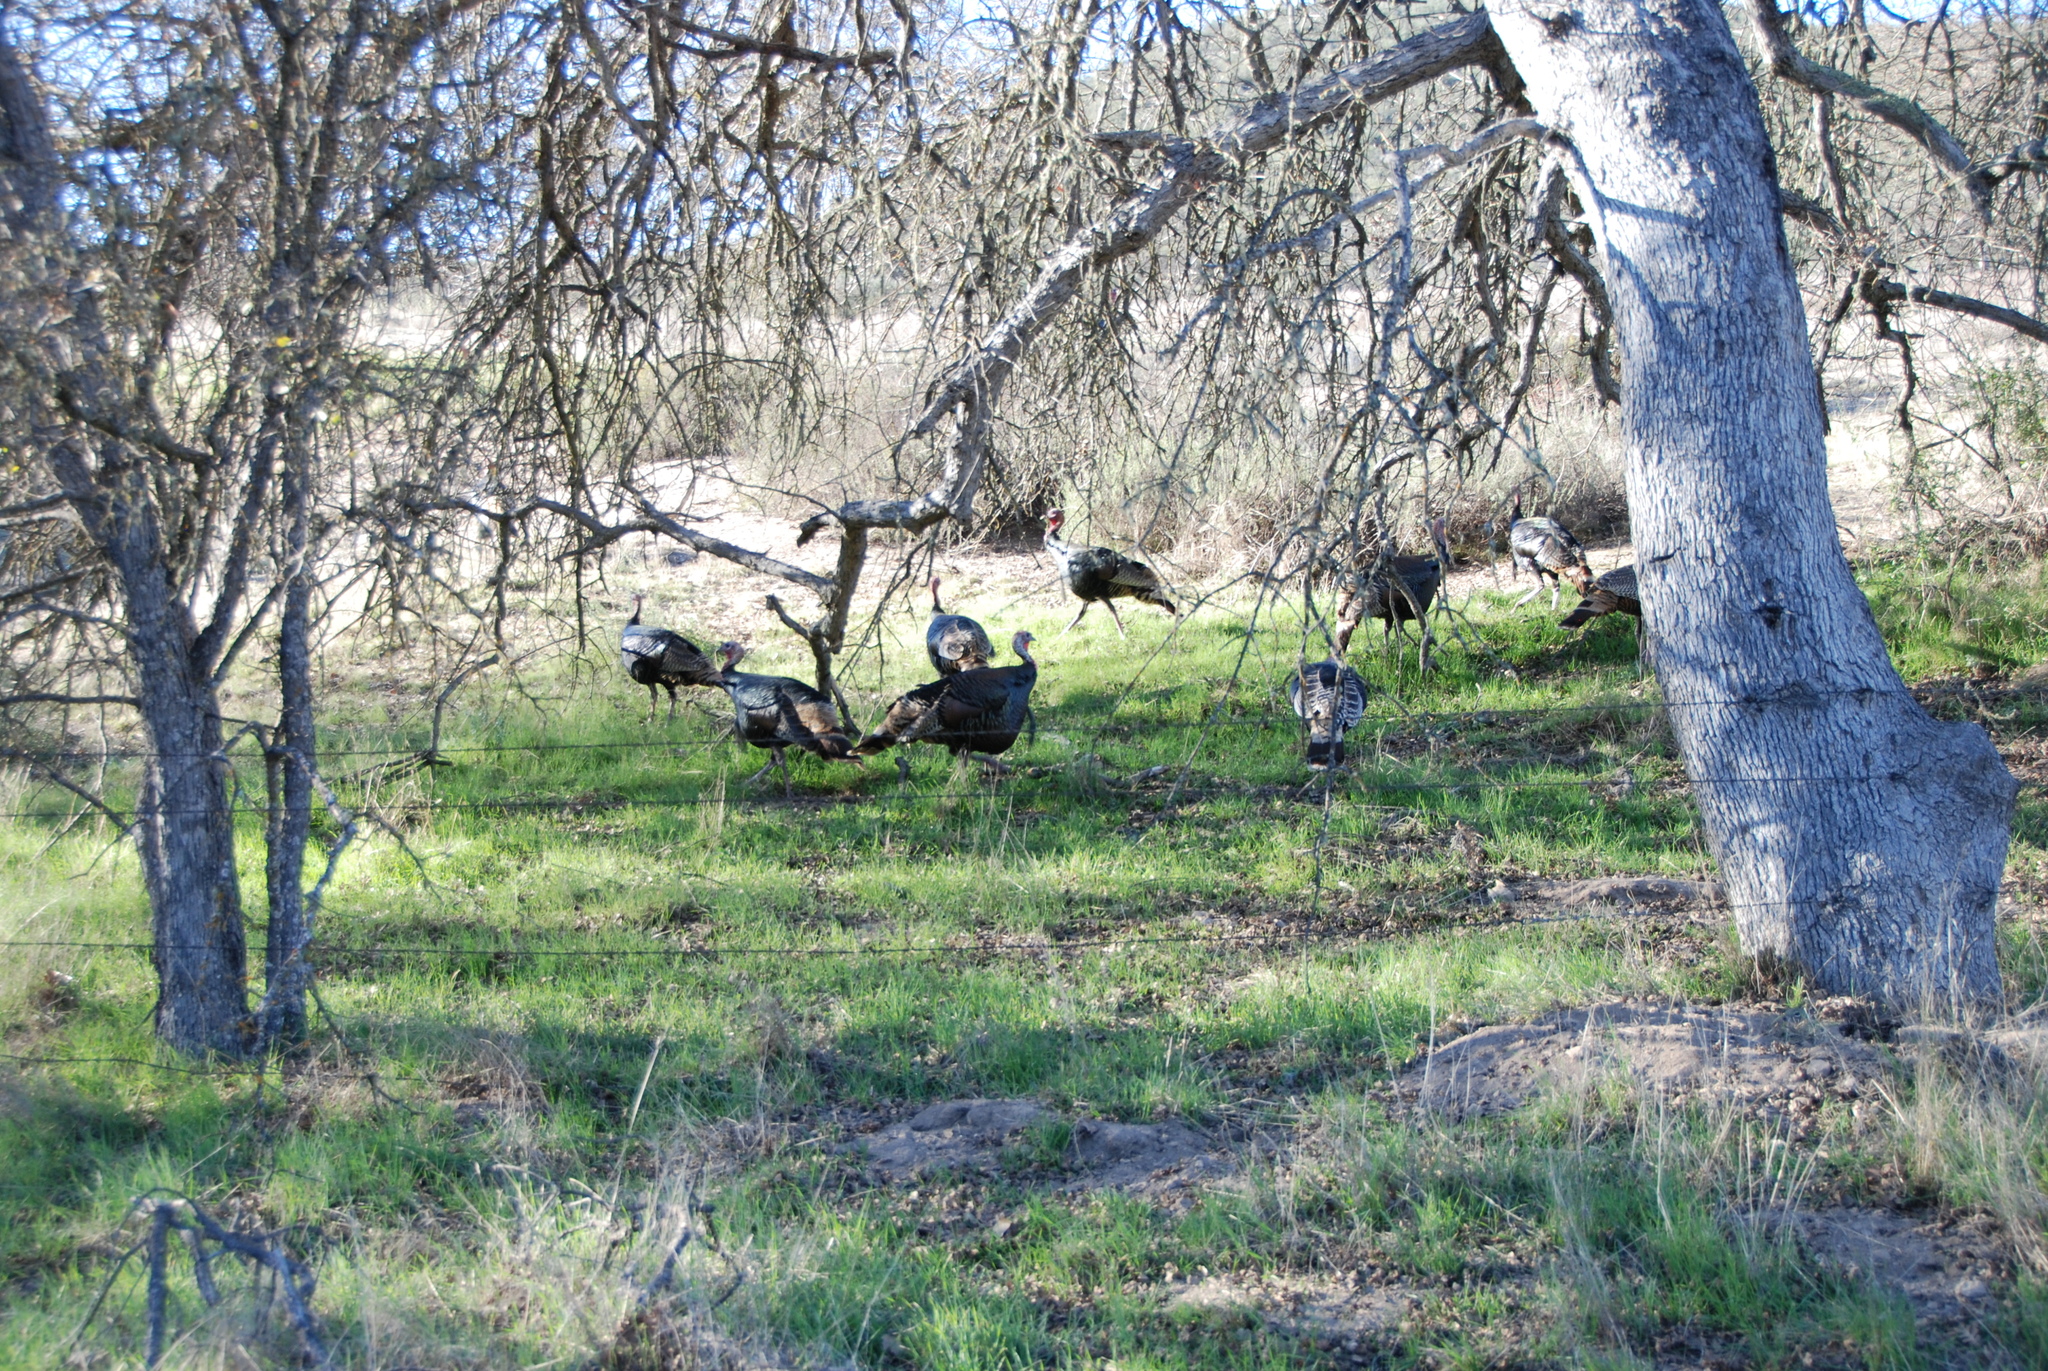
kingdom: Animalia
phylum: Chordata
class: Aves
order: Galliformes
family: Phasianidae
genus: Meleagris
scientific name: Meleagris gallopavo
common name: Wild turkey
